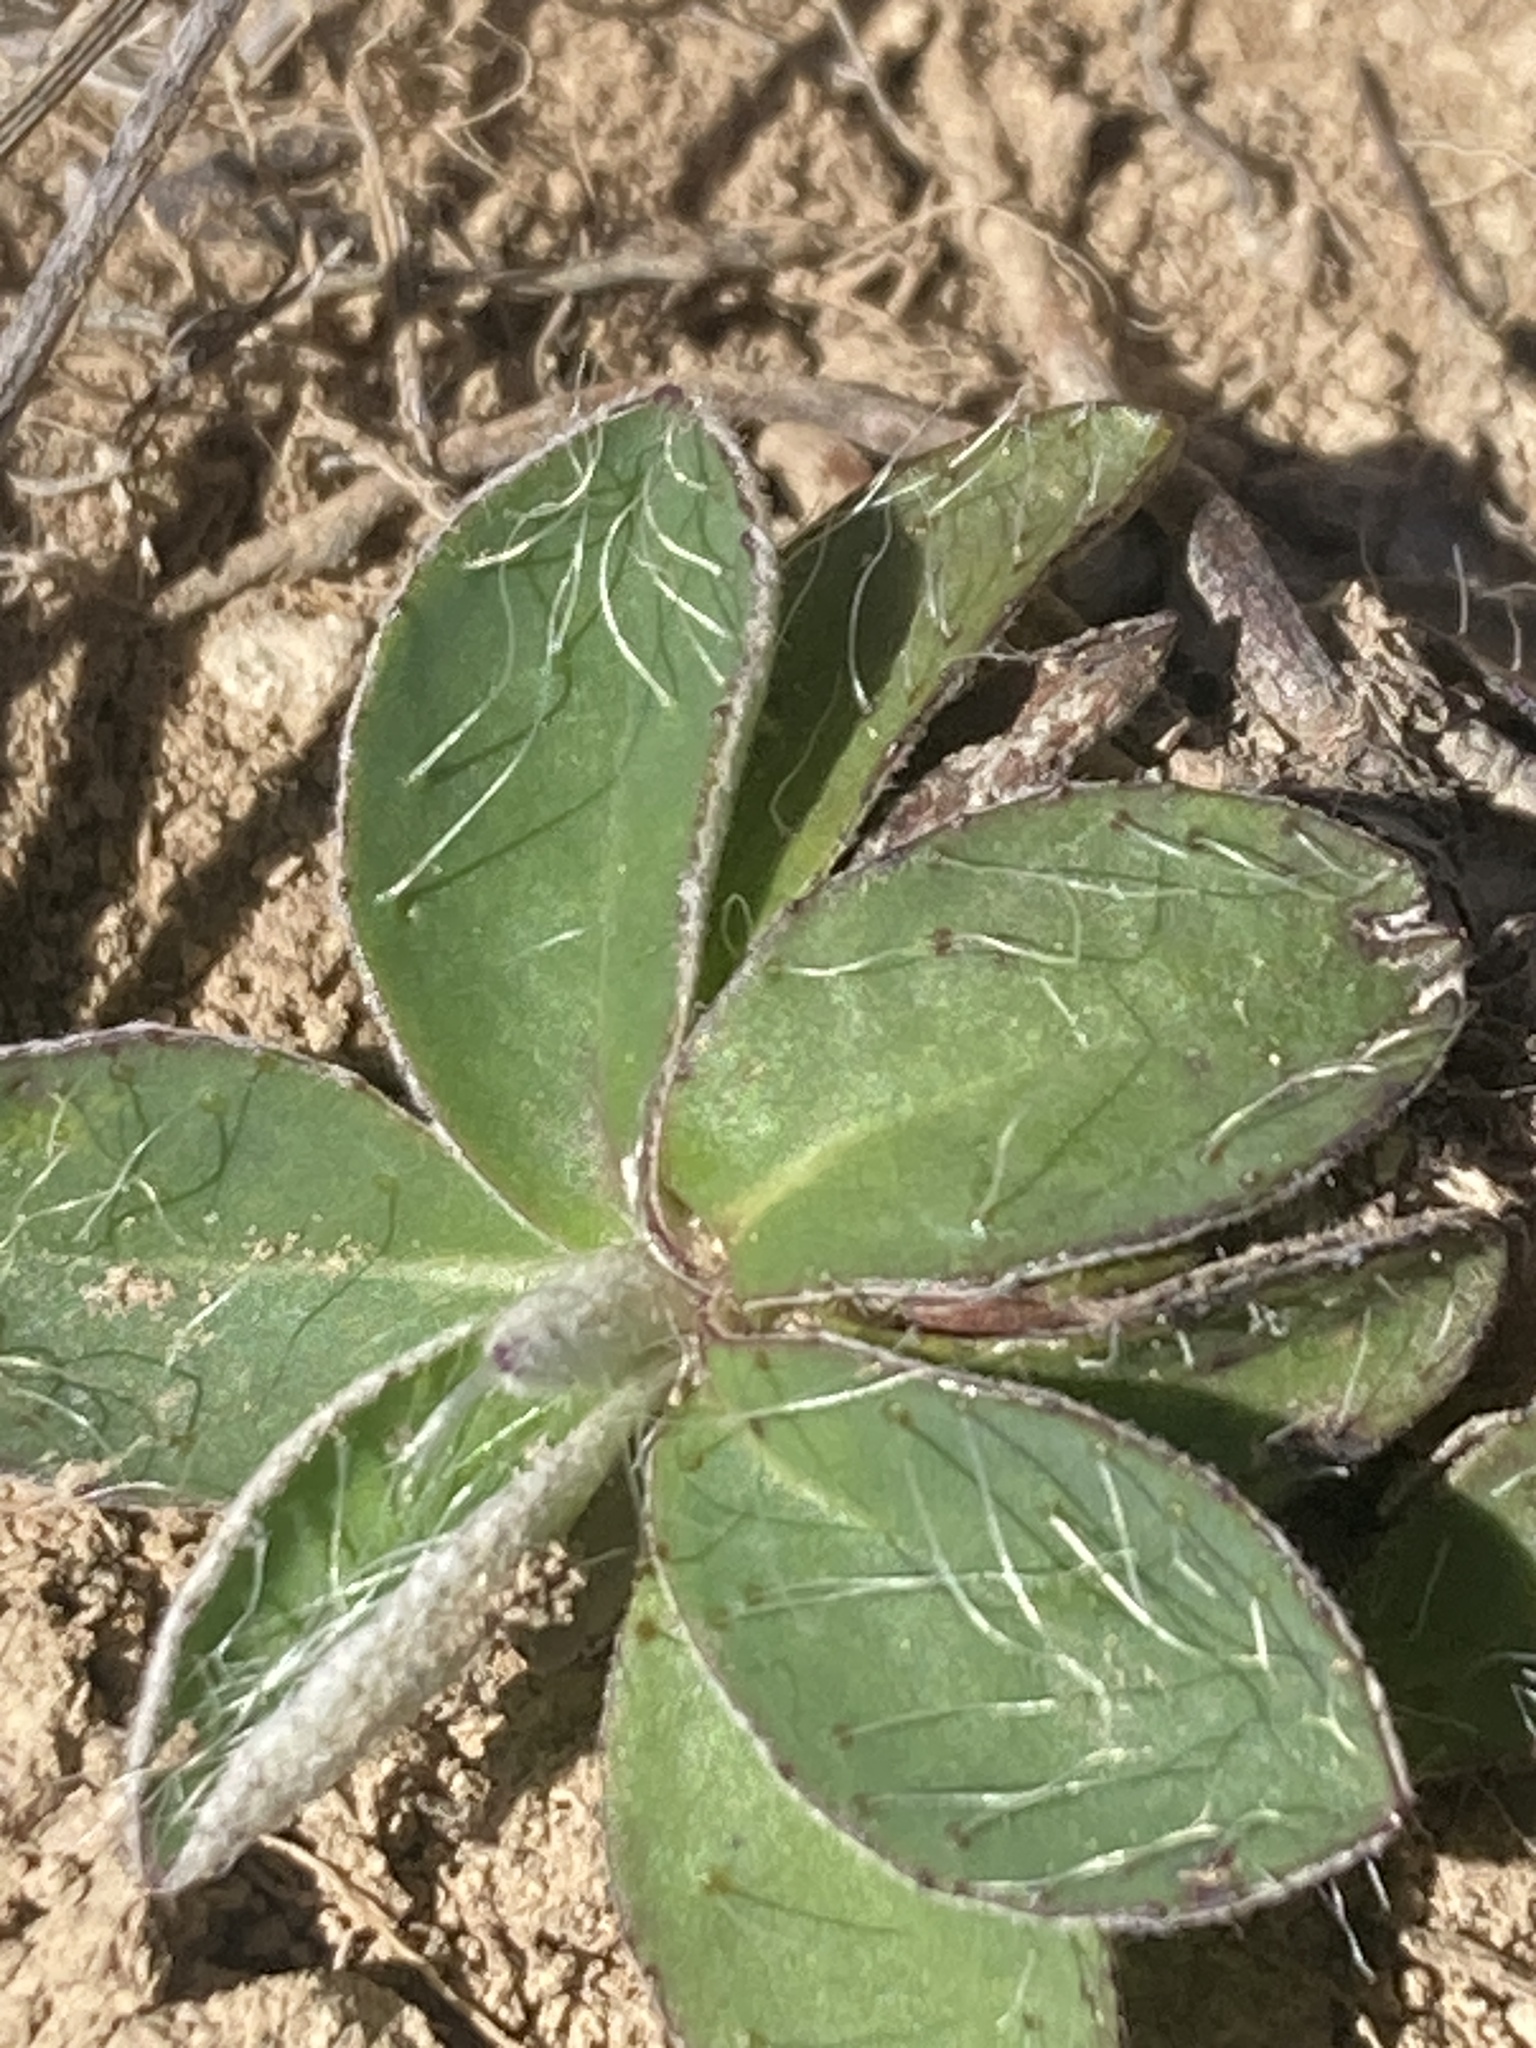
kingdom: Plantae
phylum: Tracheophyta
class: Magnoliopsida
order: Asterales
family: Asteraceae
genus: Pilosella
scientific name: Pilosella officinarum
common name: Mouse-ear hawkweed
